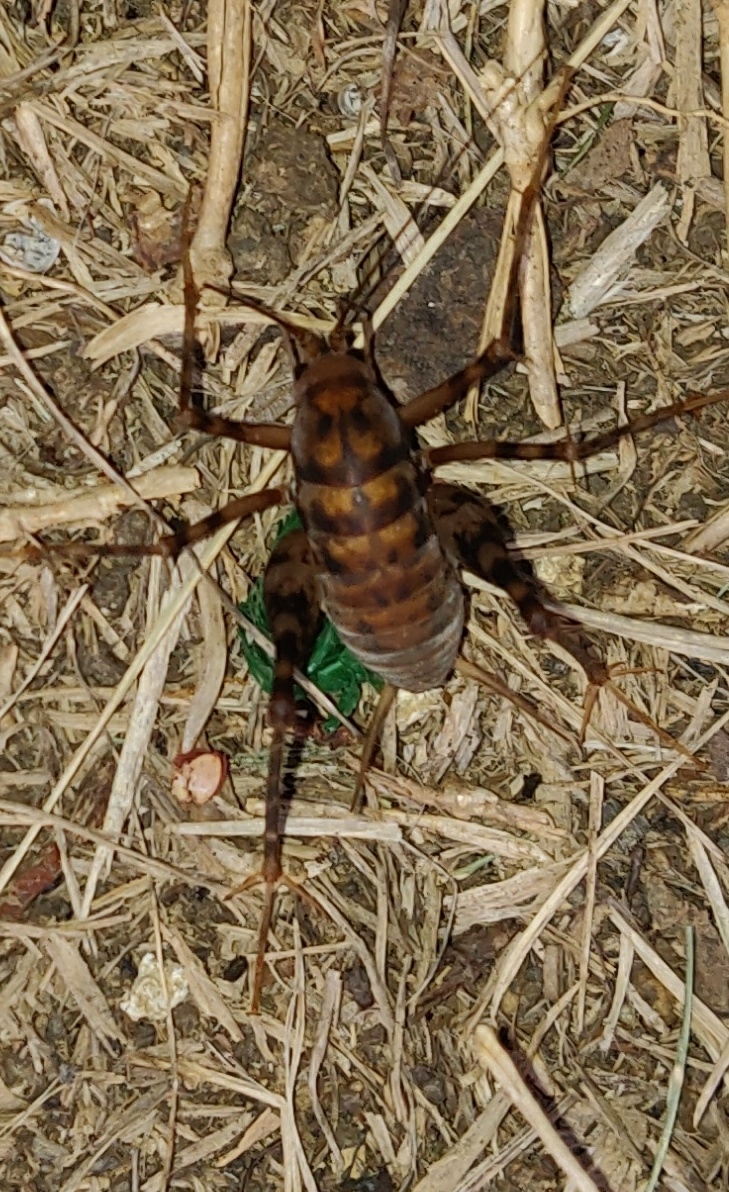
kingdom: Animalia
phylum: Arthropoda
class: Insecta
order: Orthoptera
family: Rhaphidophoridae
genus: Tachycines
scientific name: Tachycines asynamorus
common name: Greenhouse camel cricket
